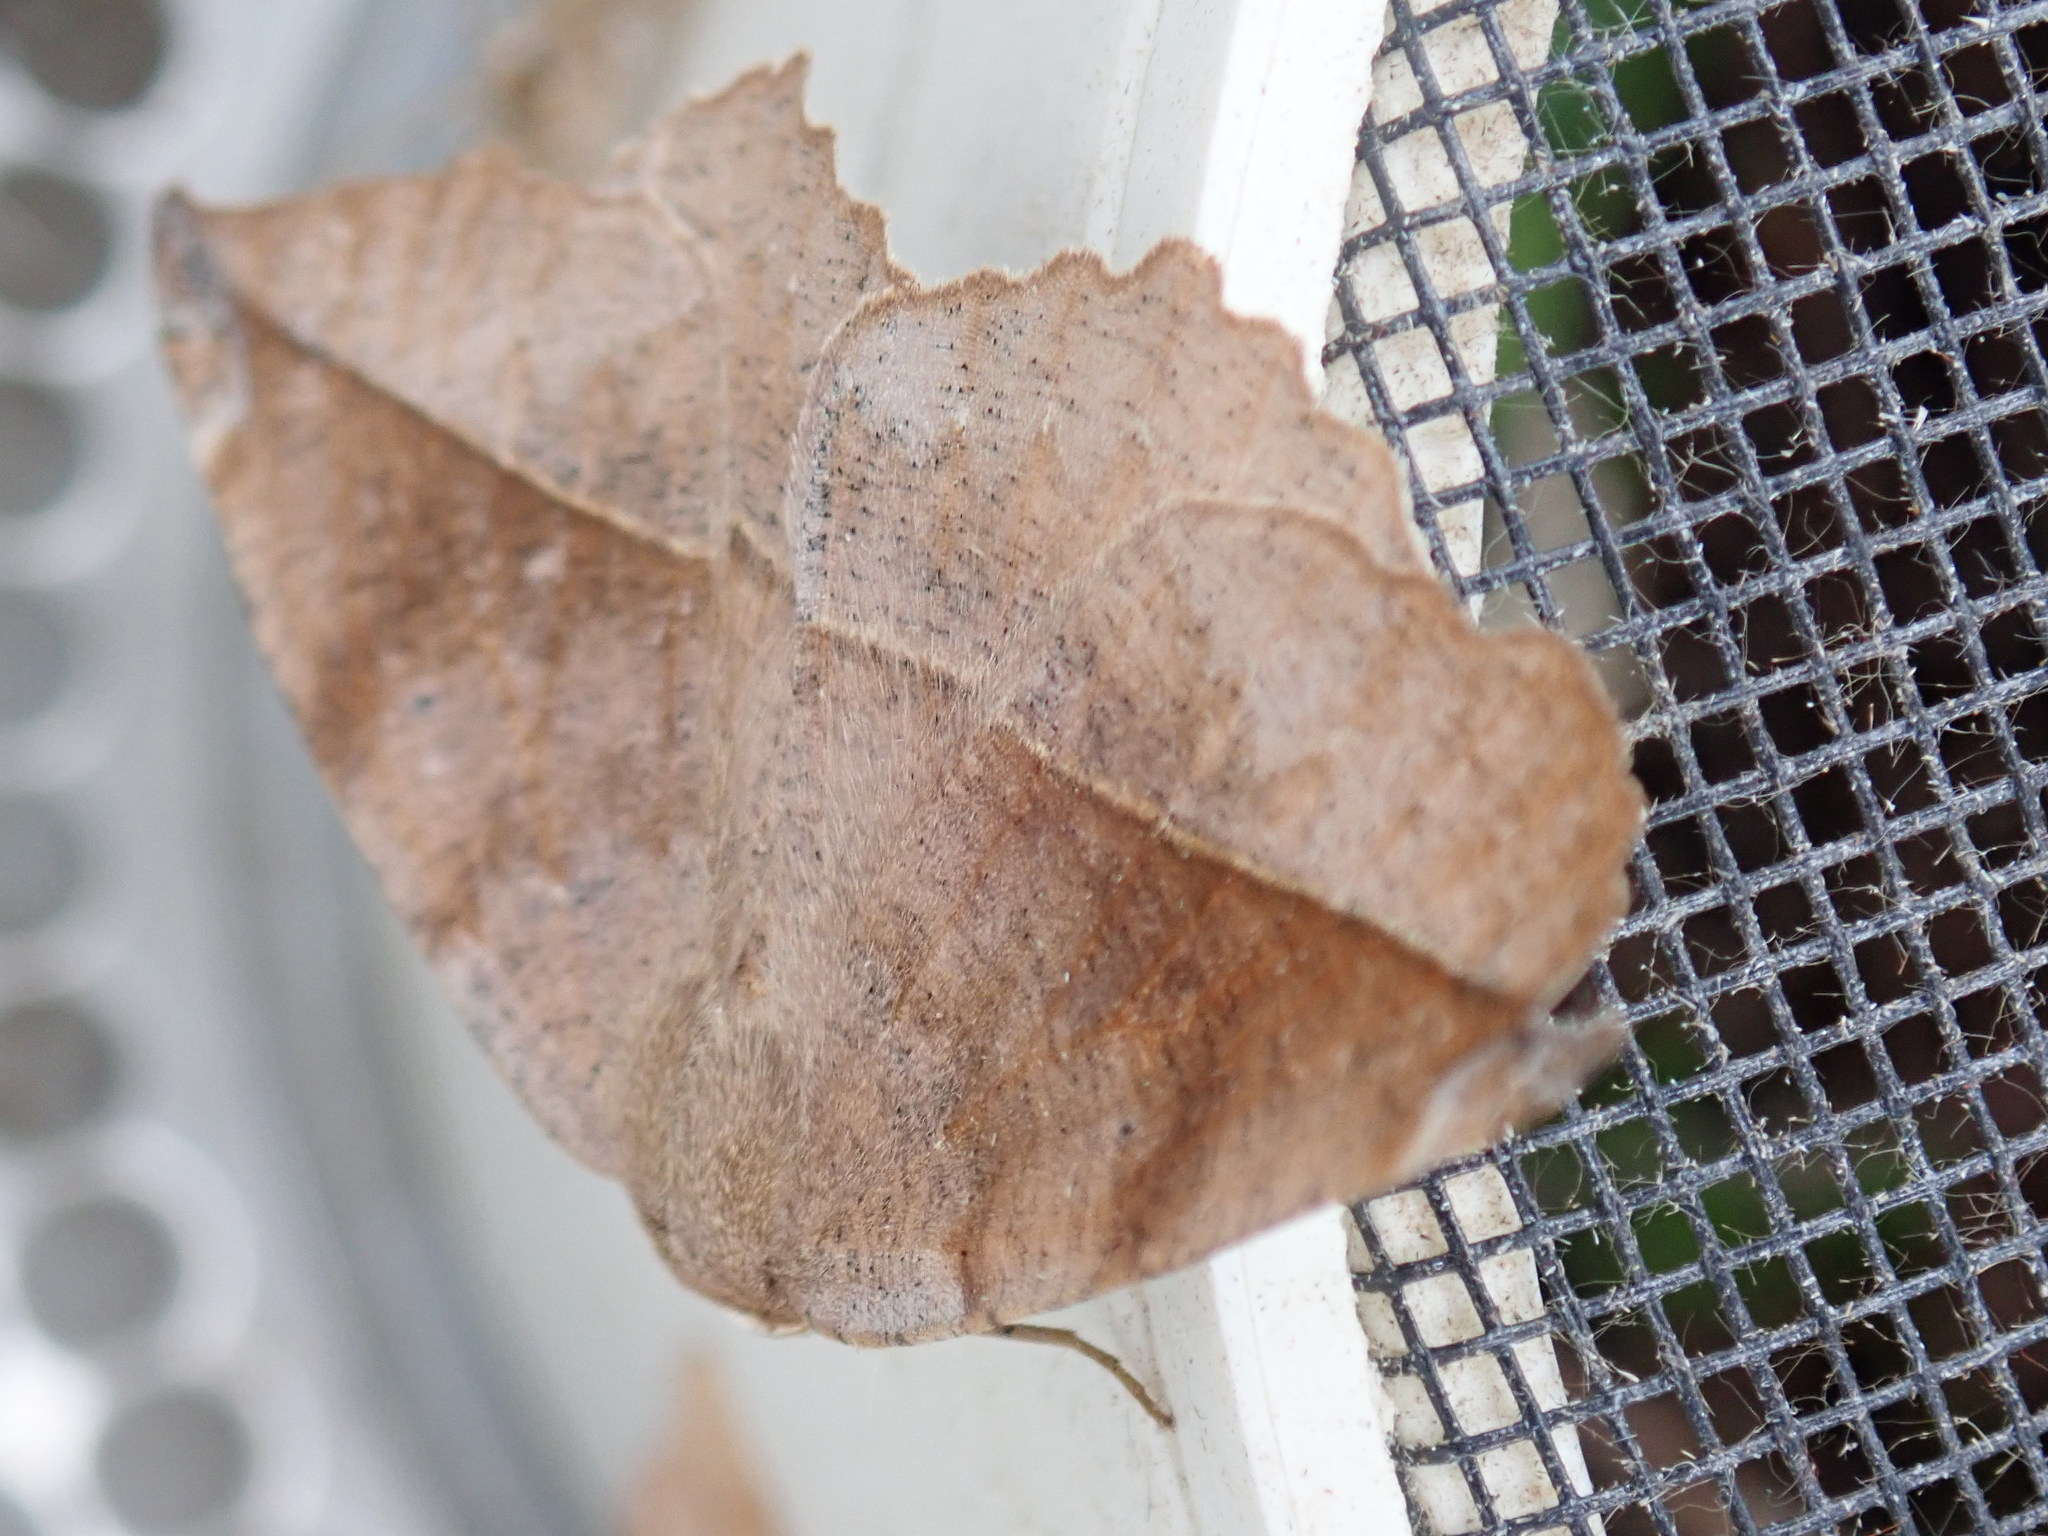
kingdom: Animalia
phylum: Arthropoda
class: Insecta
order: Lepidoptera
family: Geometridae
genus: Eutrapela
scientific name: Eutrapela clemataria
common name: Curved-toothed geometer
